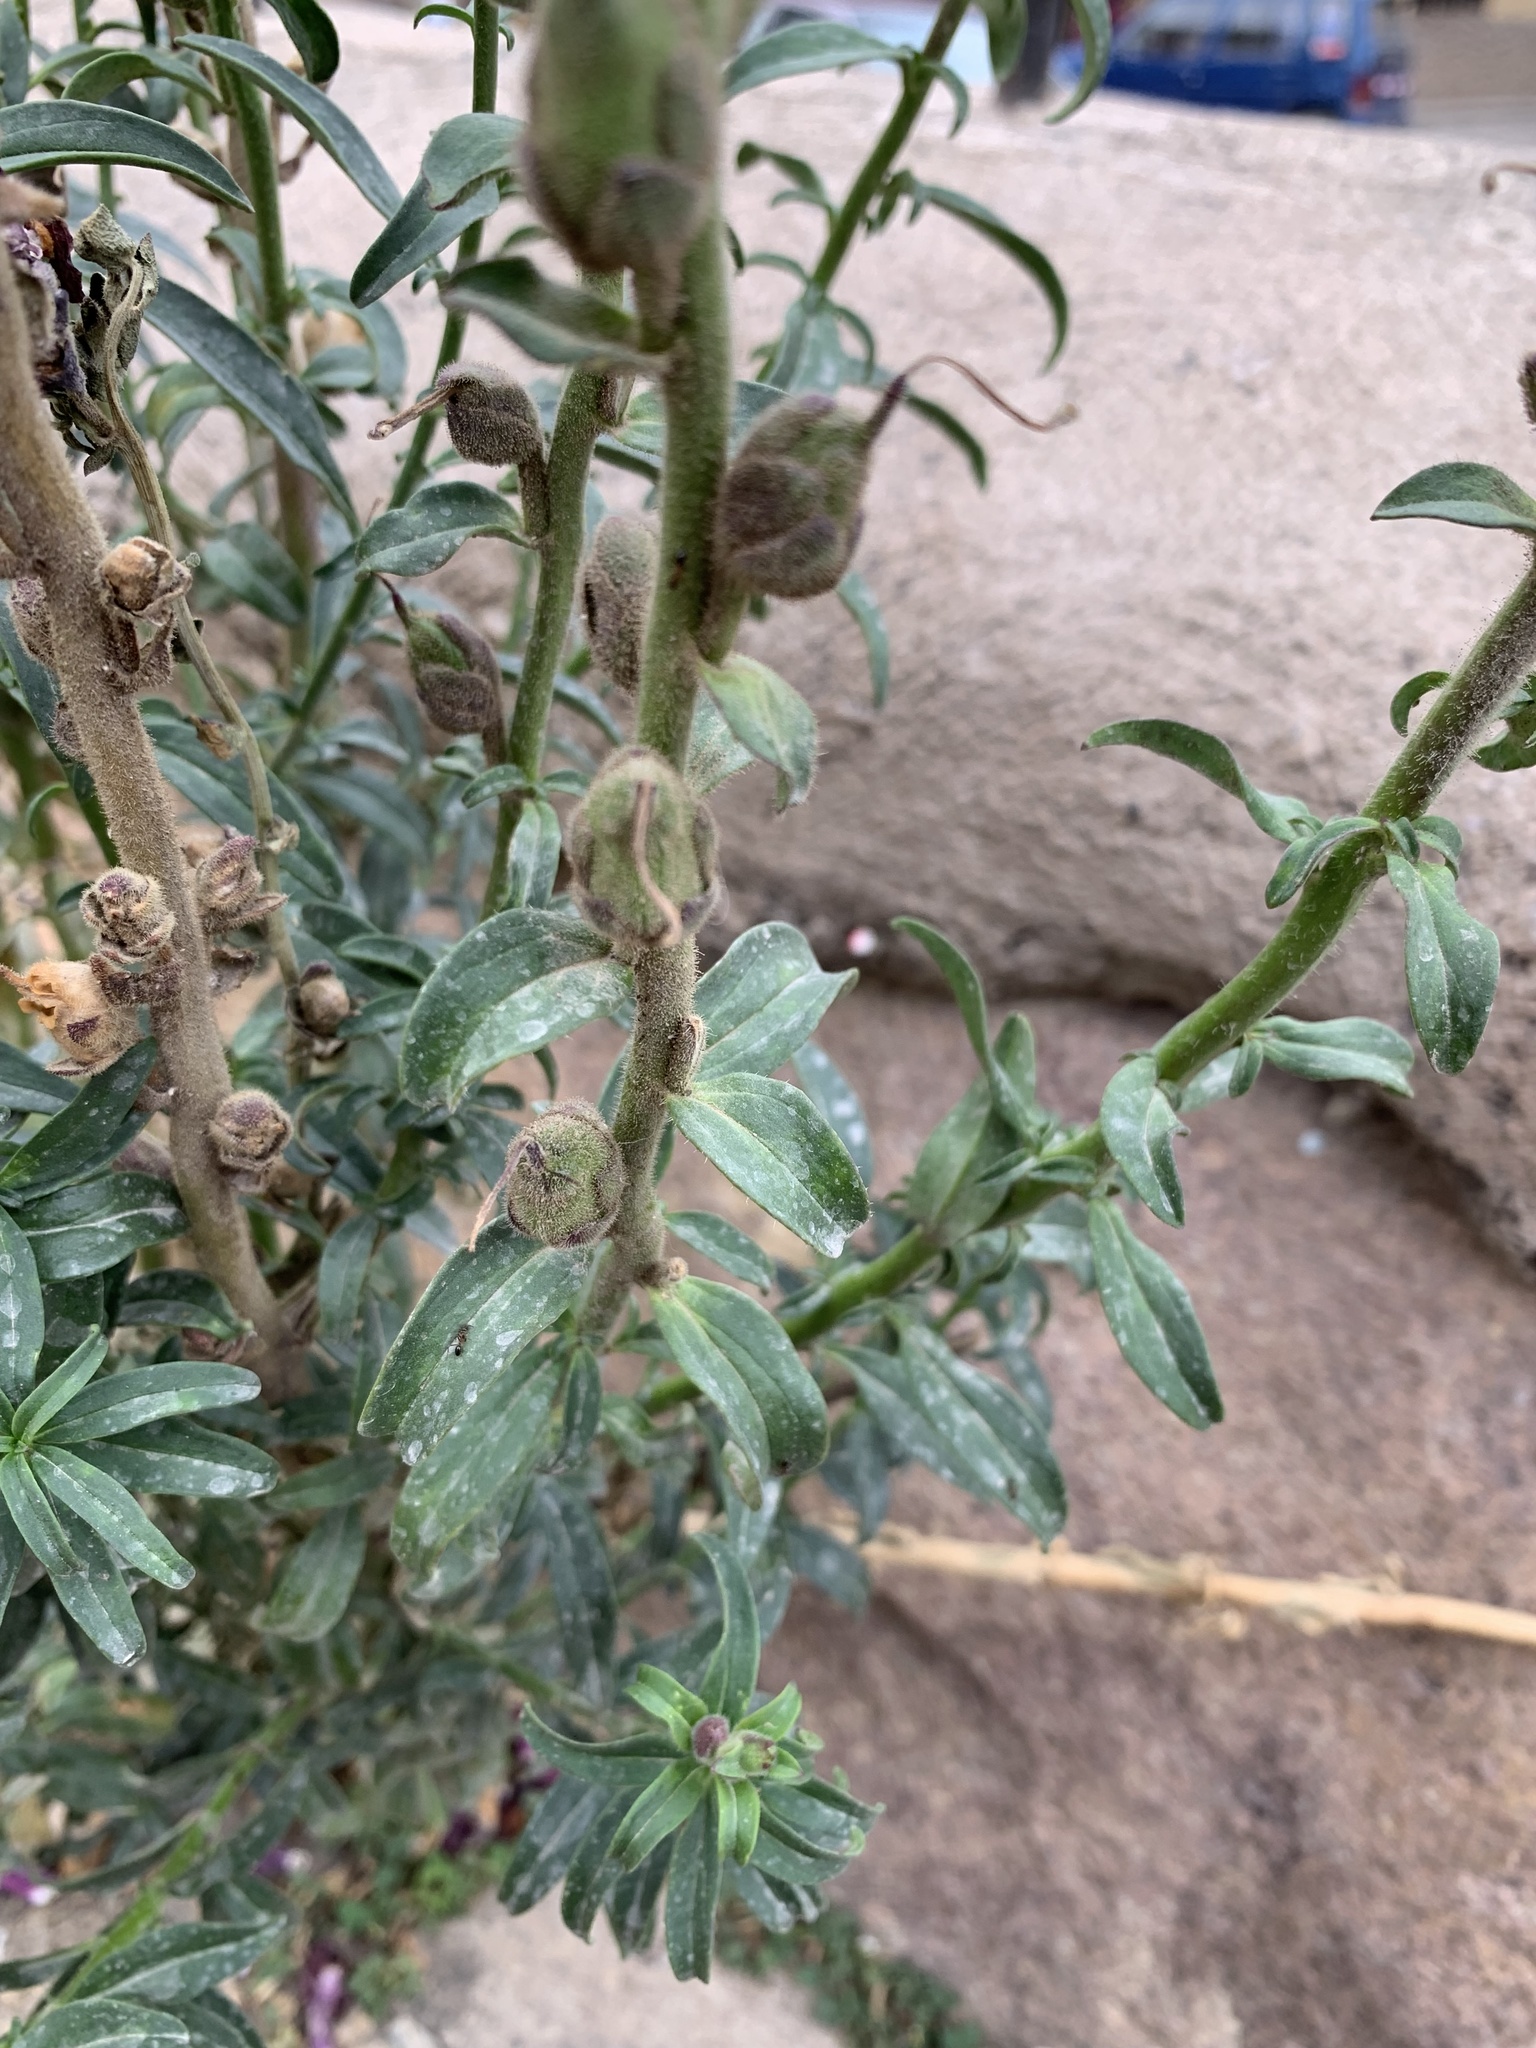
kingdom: Plantae
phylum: Tracheophyta
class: Magnoliopsida
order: Lamiales
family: Plantaginaceae
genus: Antirrhinum
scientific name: Antirrhinum majus
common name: Snapdragon
